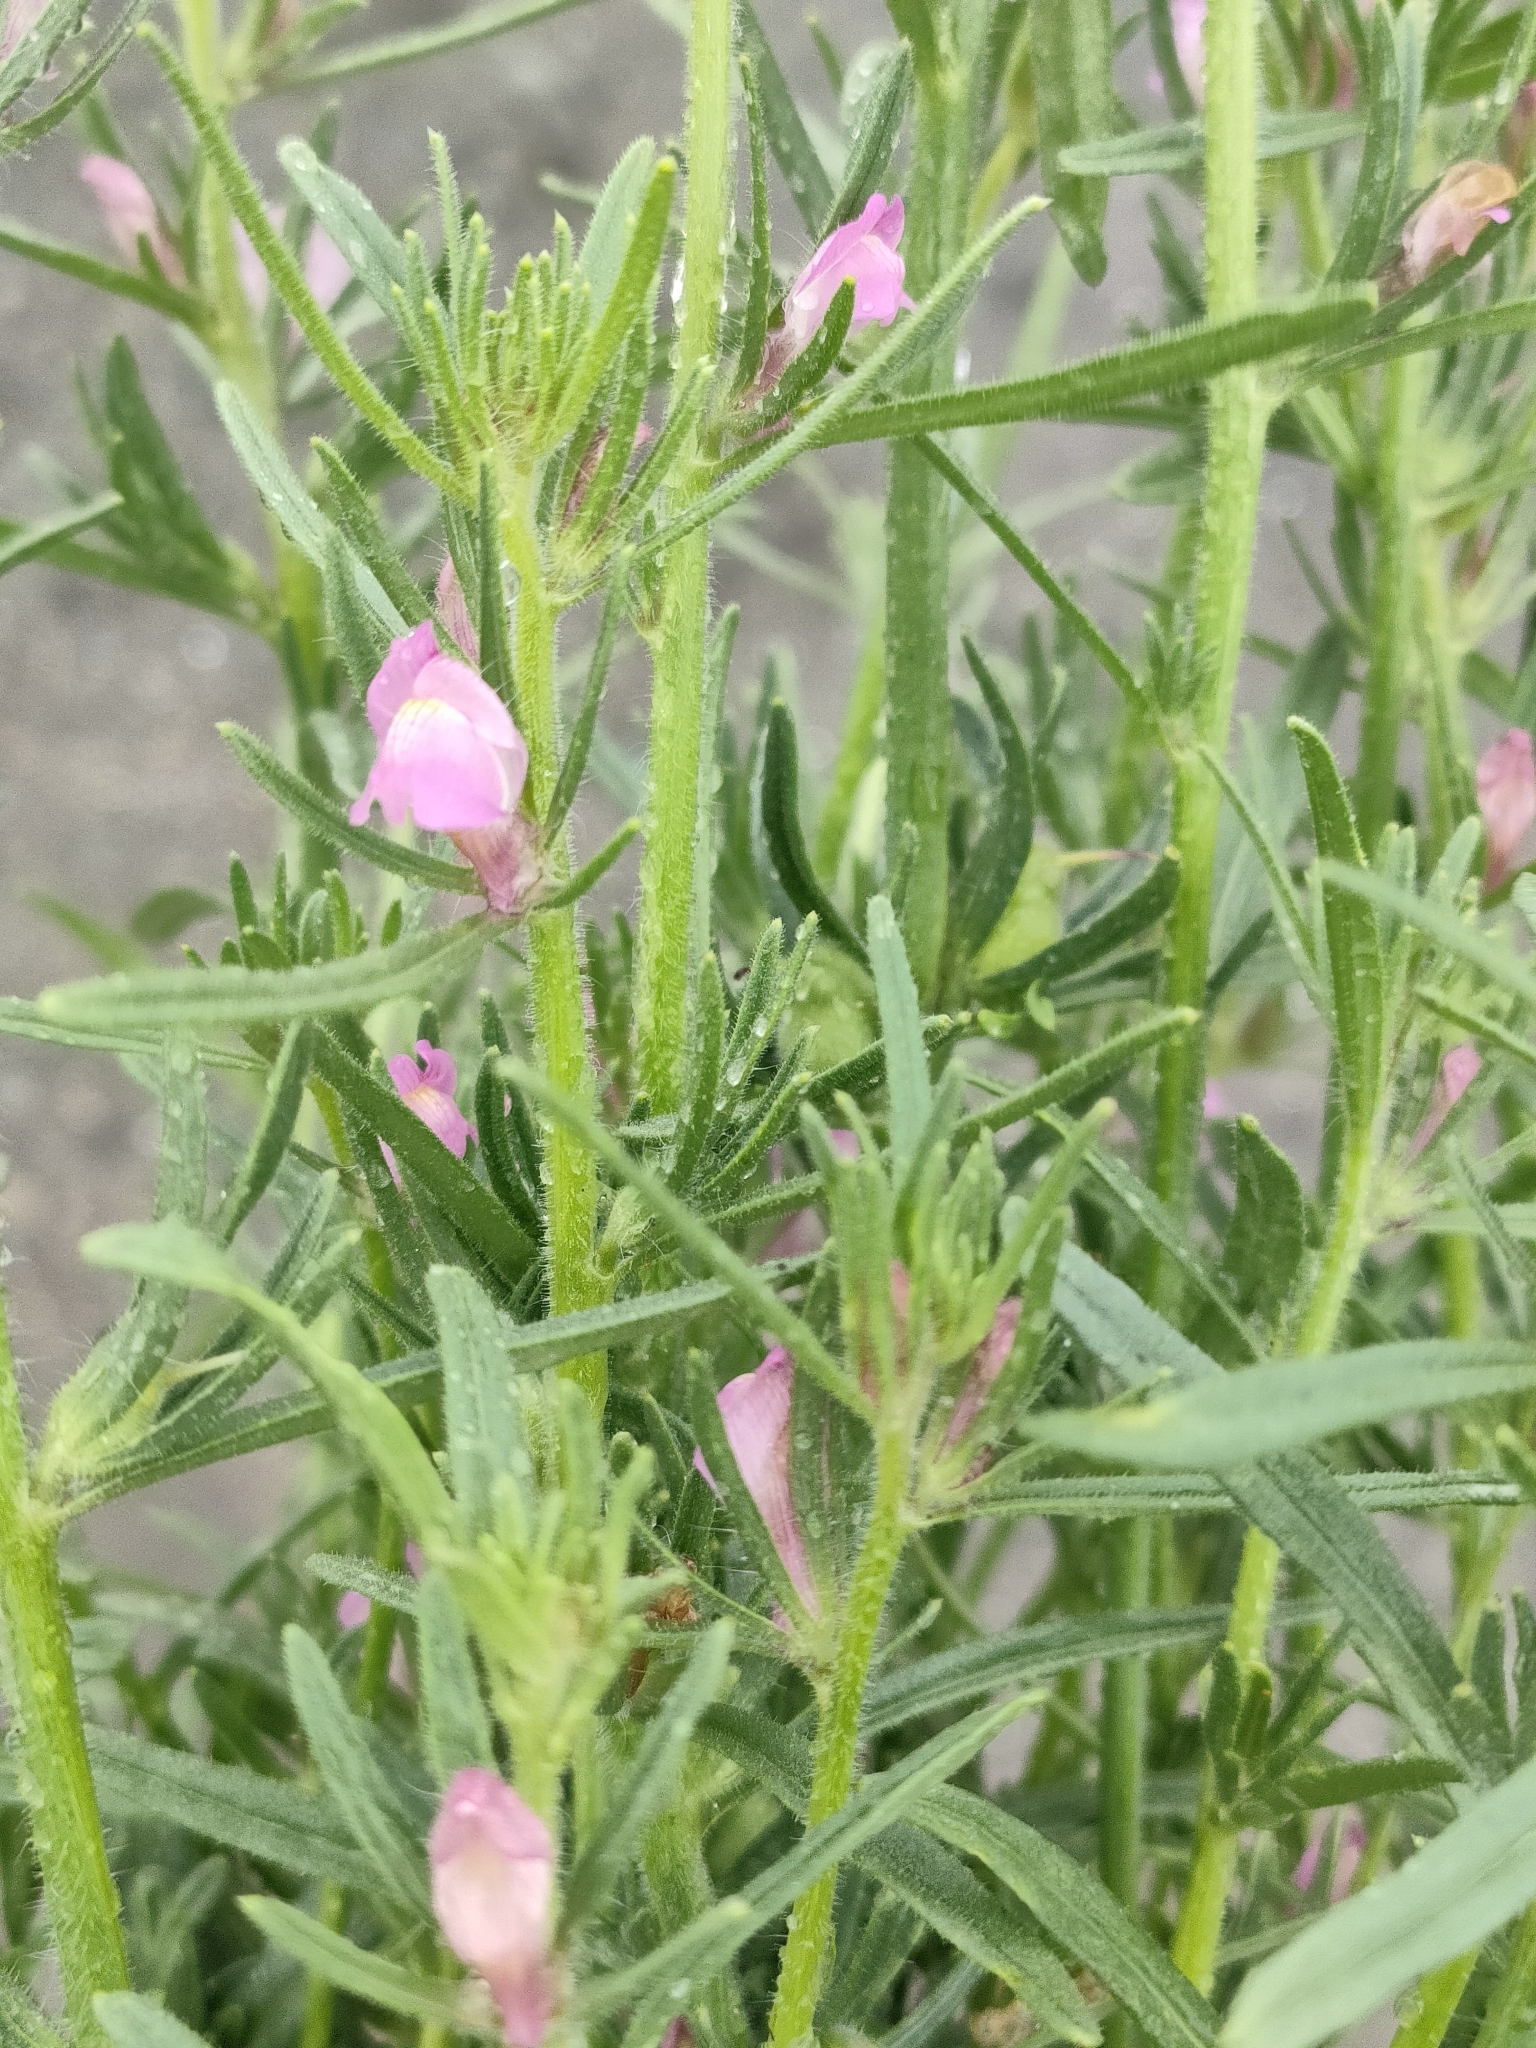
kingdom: Plantae
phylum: Tracheophyta
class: Magnoliopsida
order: Lamiales
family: Plantaginaceae
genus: Misopates
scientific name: Misopates orontium
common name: Weasel's-snout
